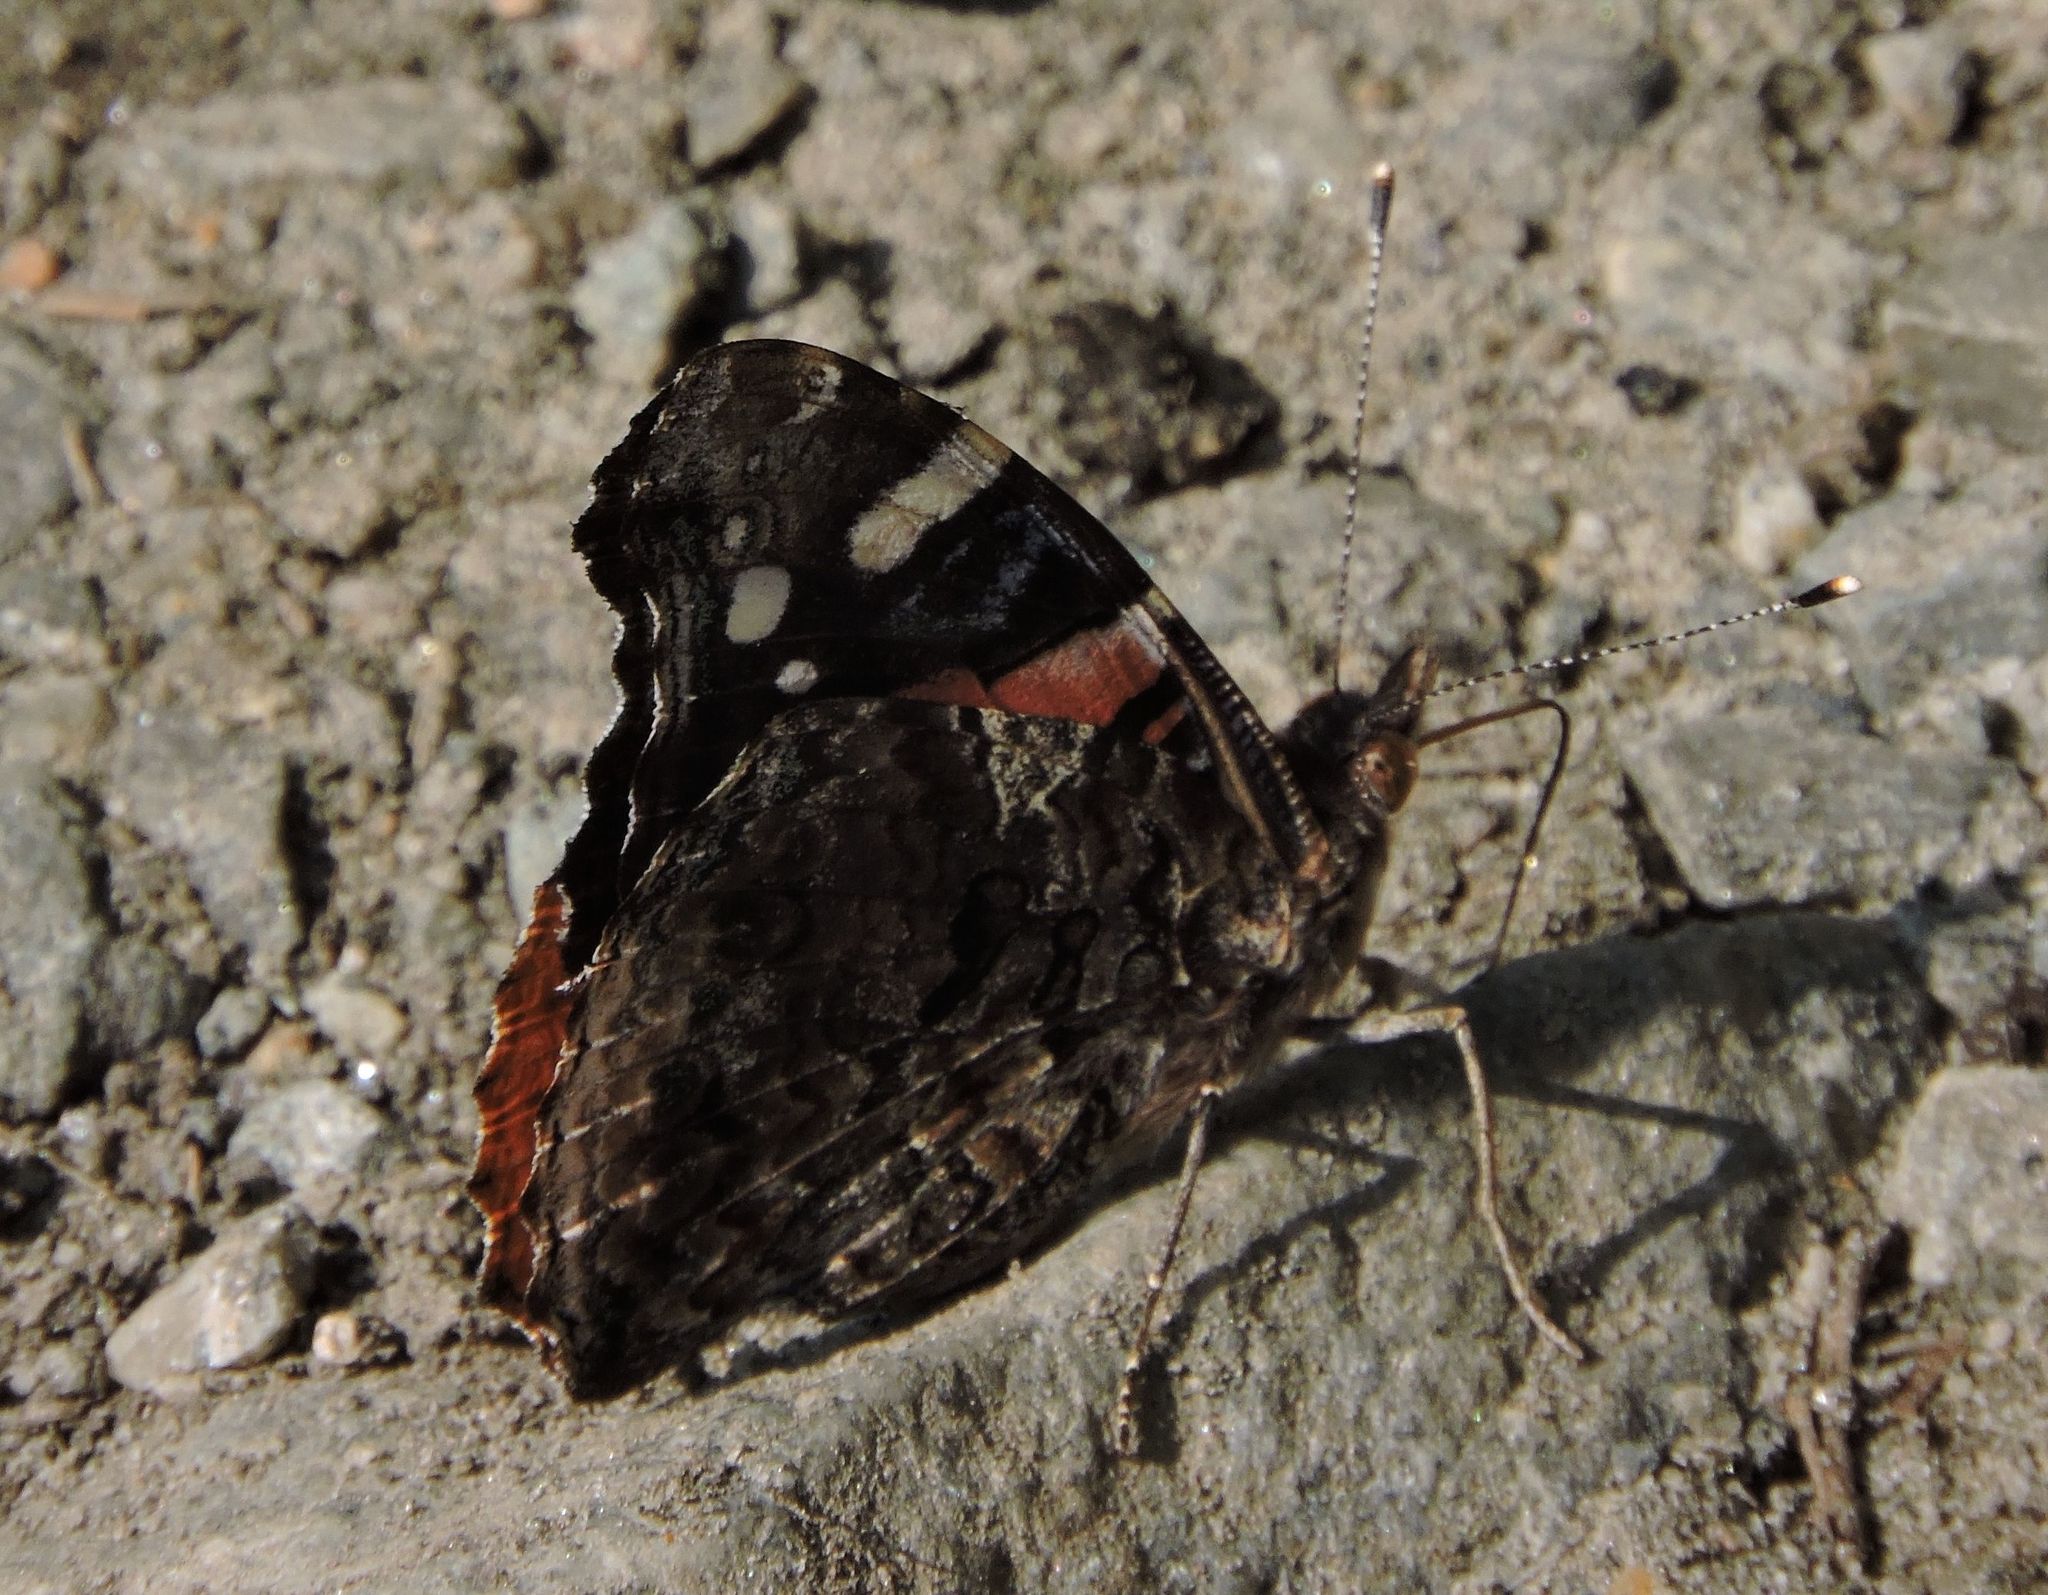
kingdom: Animalia
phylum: Arthropoda
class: Insecta
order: Lepidoptera
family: Nymphalidae
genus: Vanessa
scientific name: Vanessa atalanta
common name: Red admiral
